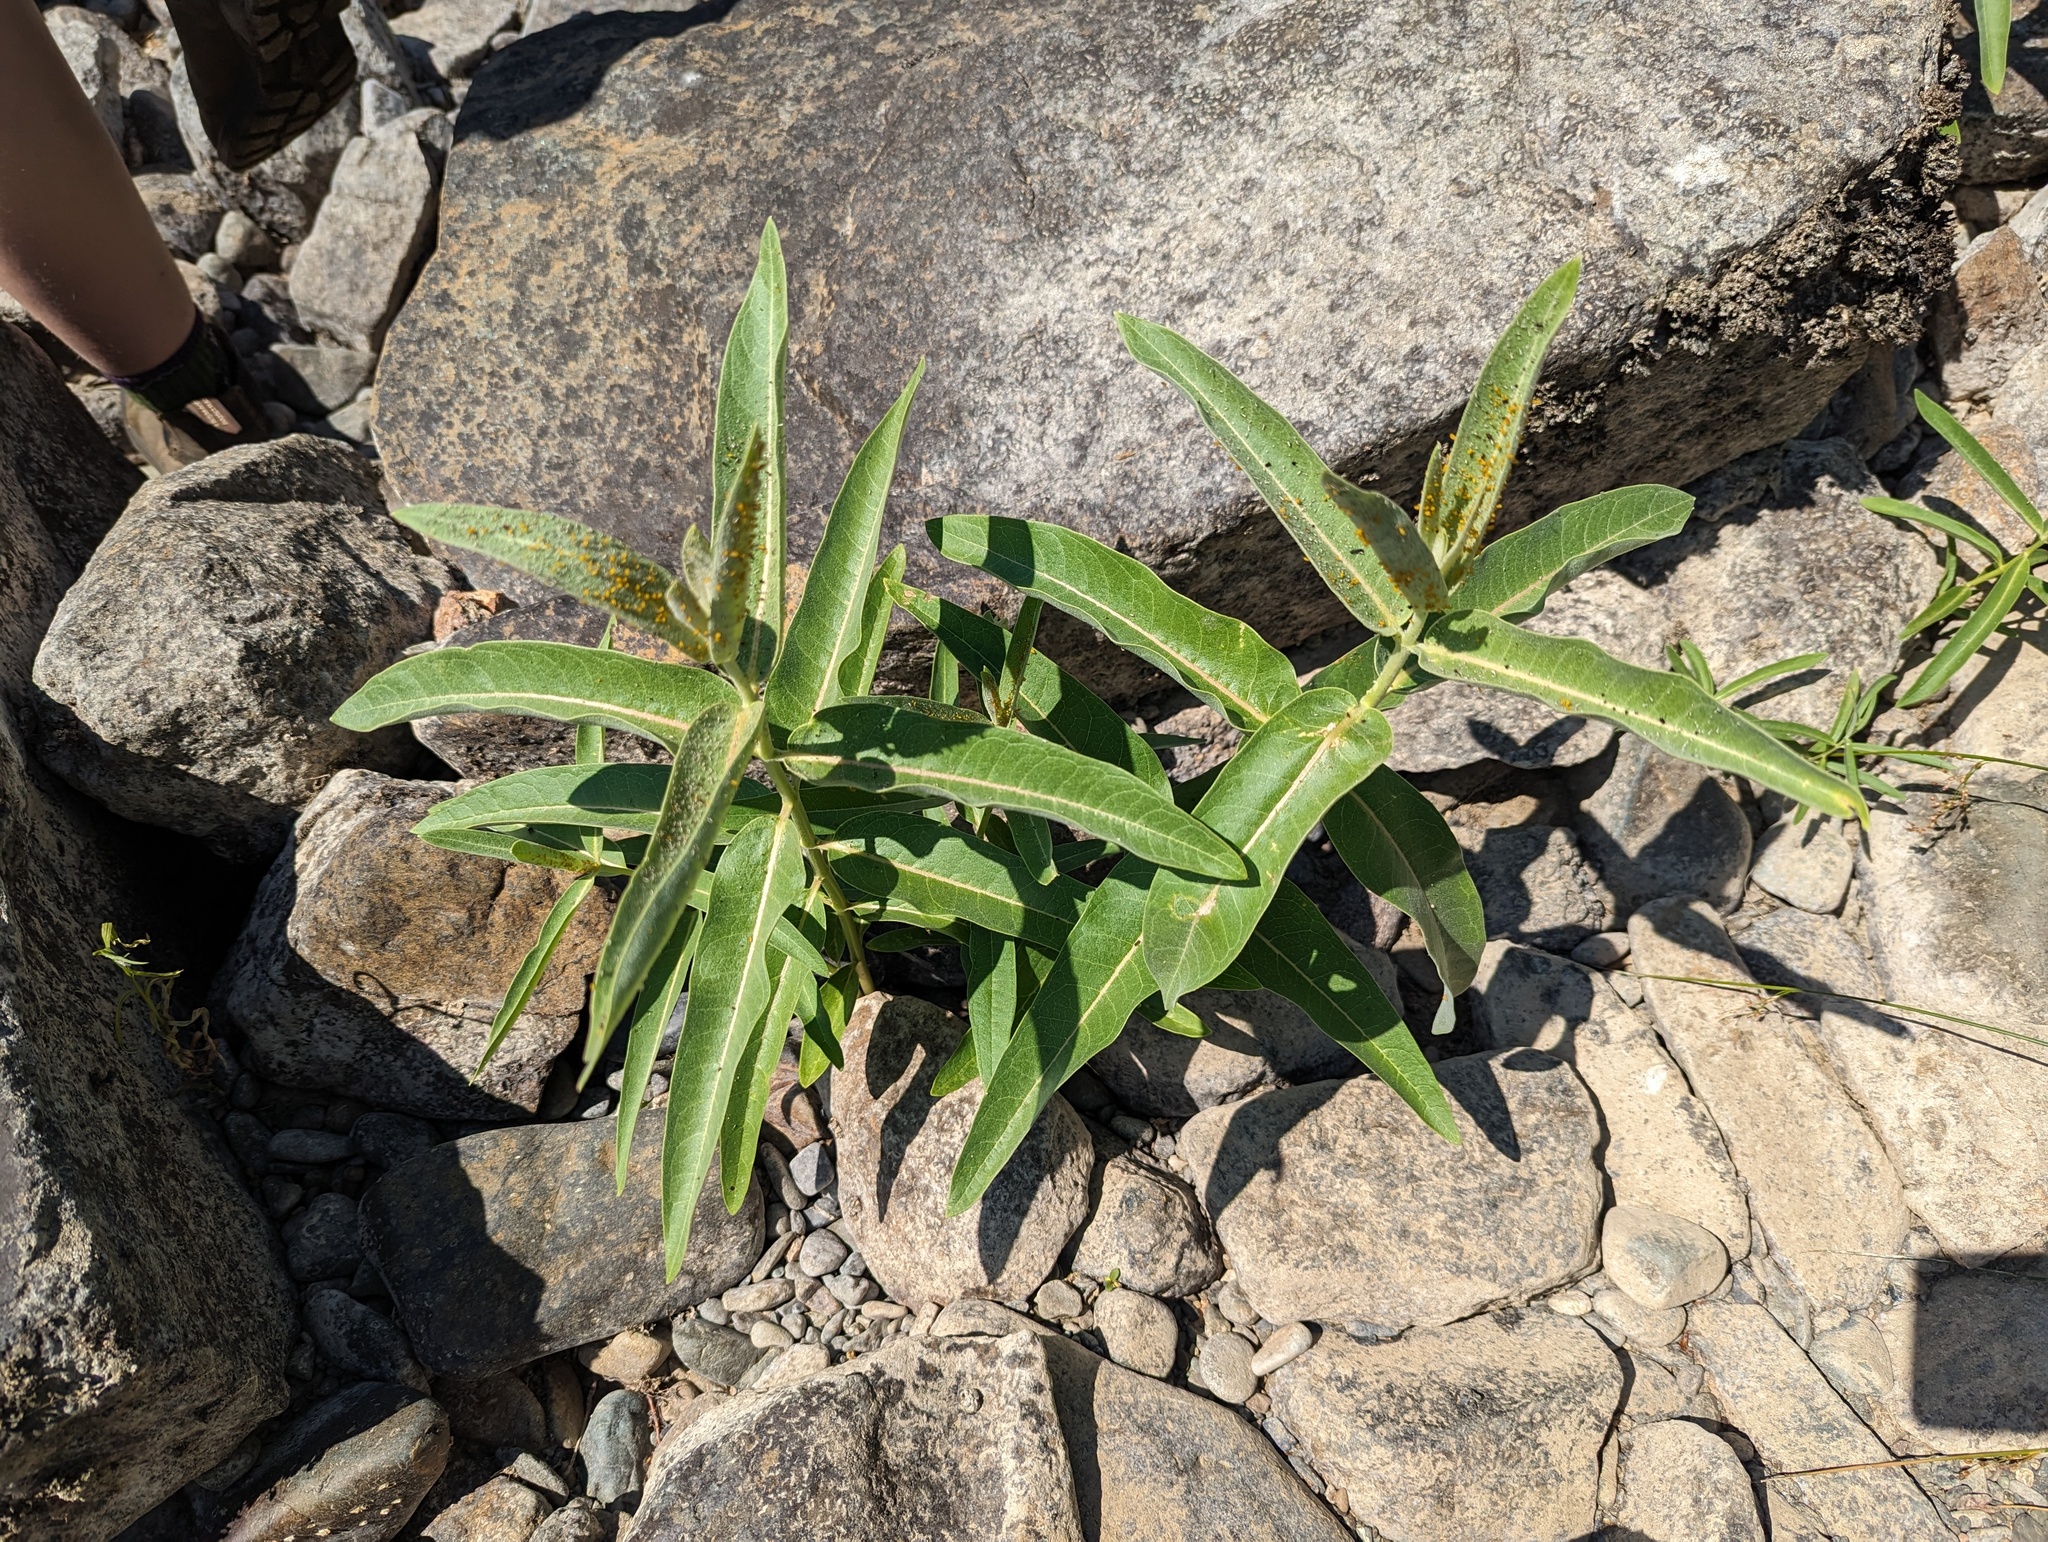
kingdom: Plantae
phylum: Tracheophyta
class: Magnoliopsida
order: Gentianales
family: Apocynaceae
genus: Asclepias
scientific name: Asclepias speciosa
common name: Showy milkweed
